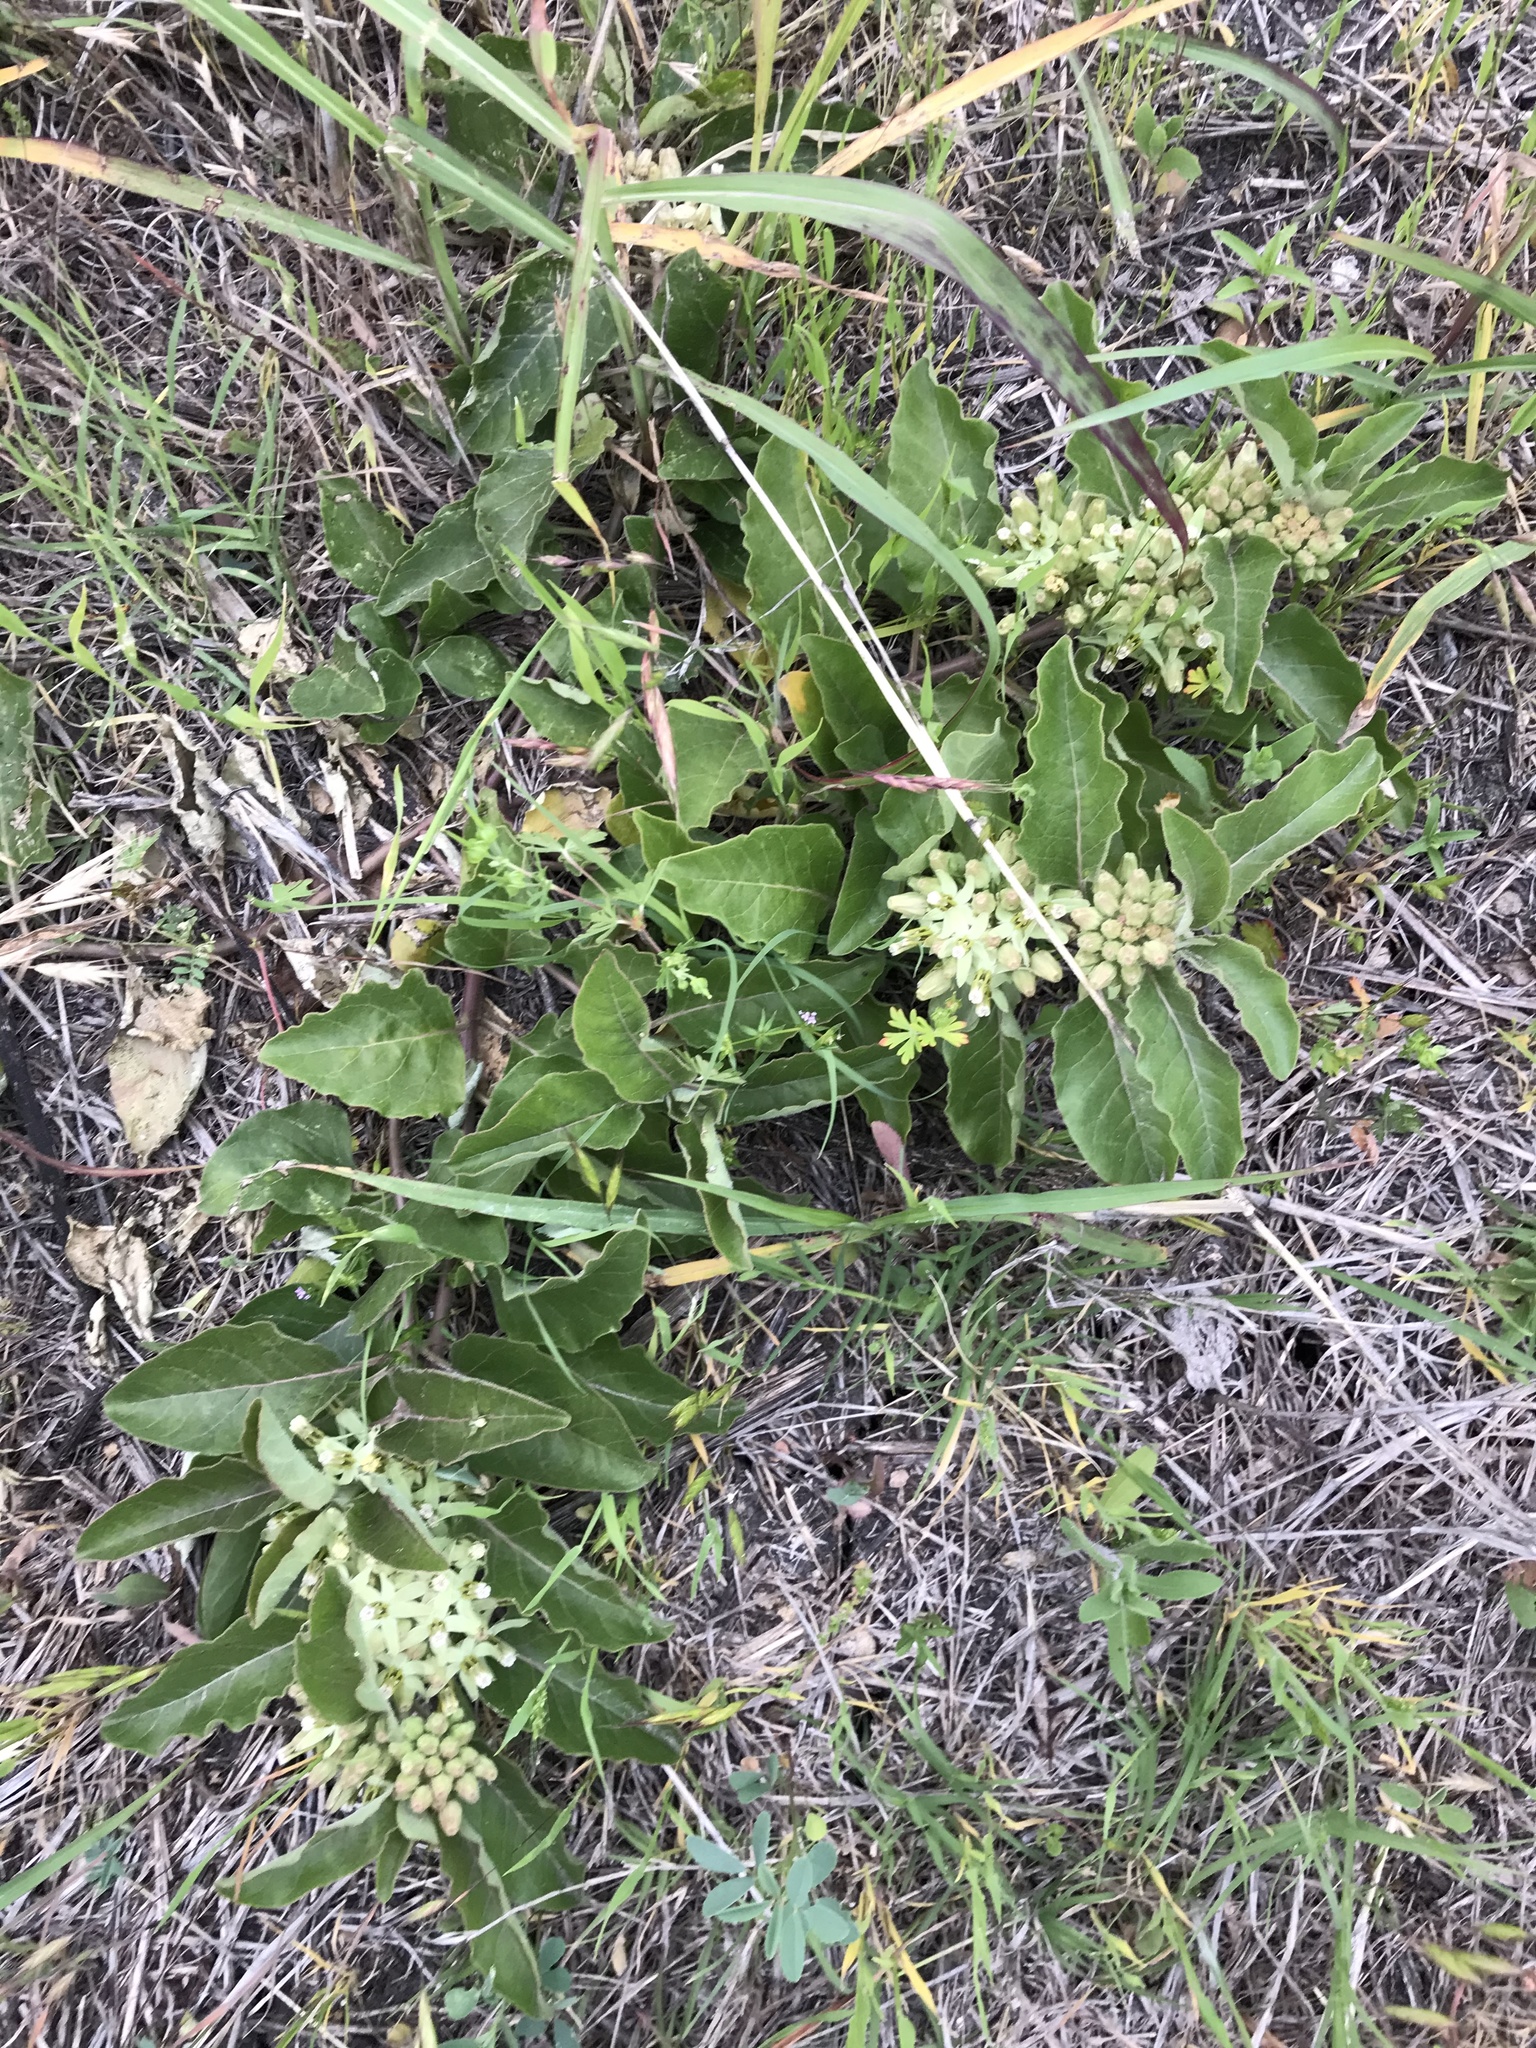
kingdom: Plantae
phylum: Tracheophyta
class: Magnoliopsida
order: Gentianales
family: Apocynaceae
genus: Asclepias
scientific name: Asclepias oenotheroides
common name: Zizotes milkweed
